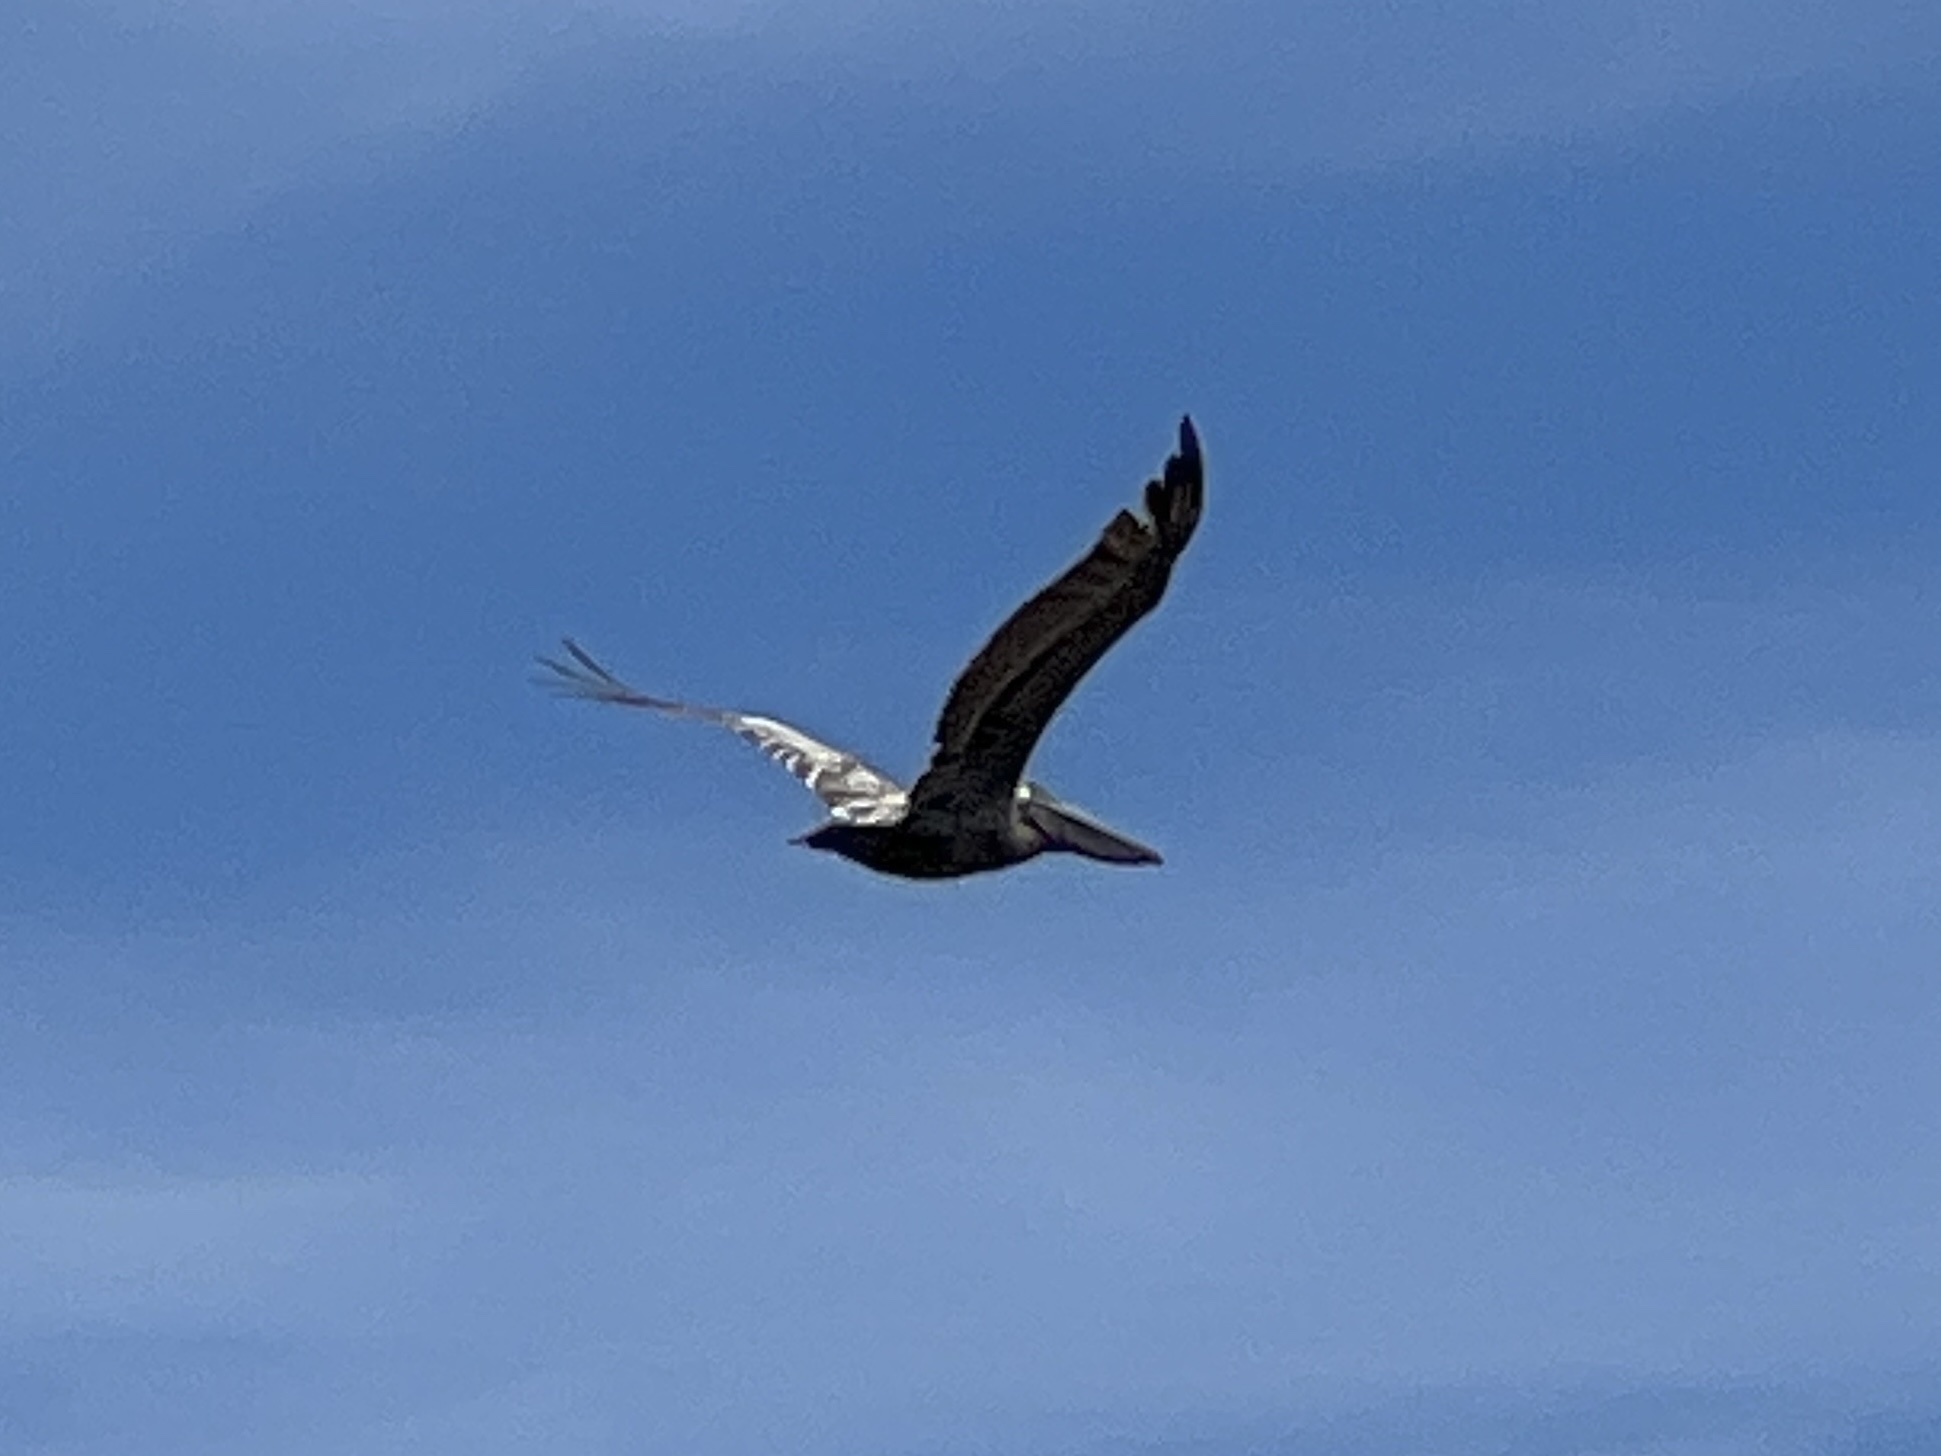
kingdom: Animalia
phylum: Chordata
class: Aves
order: Pelecaniformes
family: Pelecanidae
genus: Pelecanus
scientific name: Pelecanus occidentalis
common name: Brown pelican
